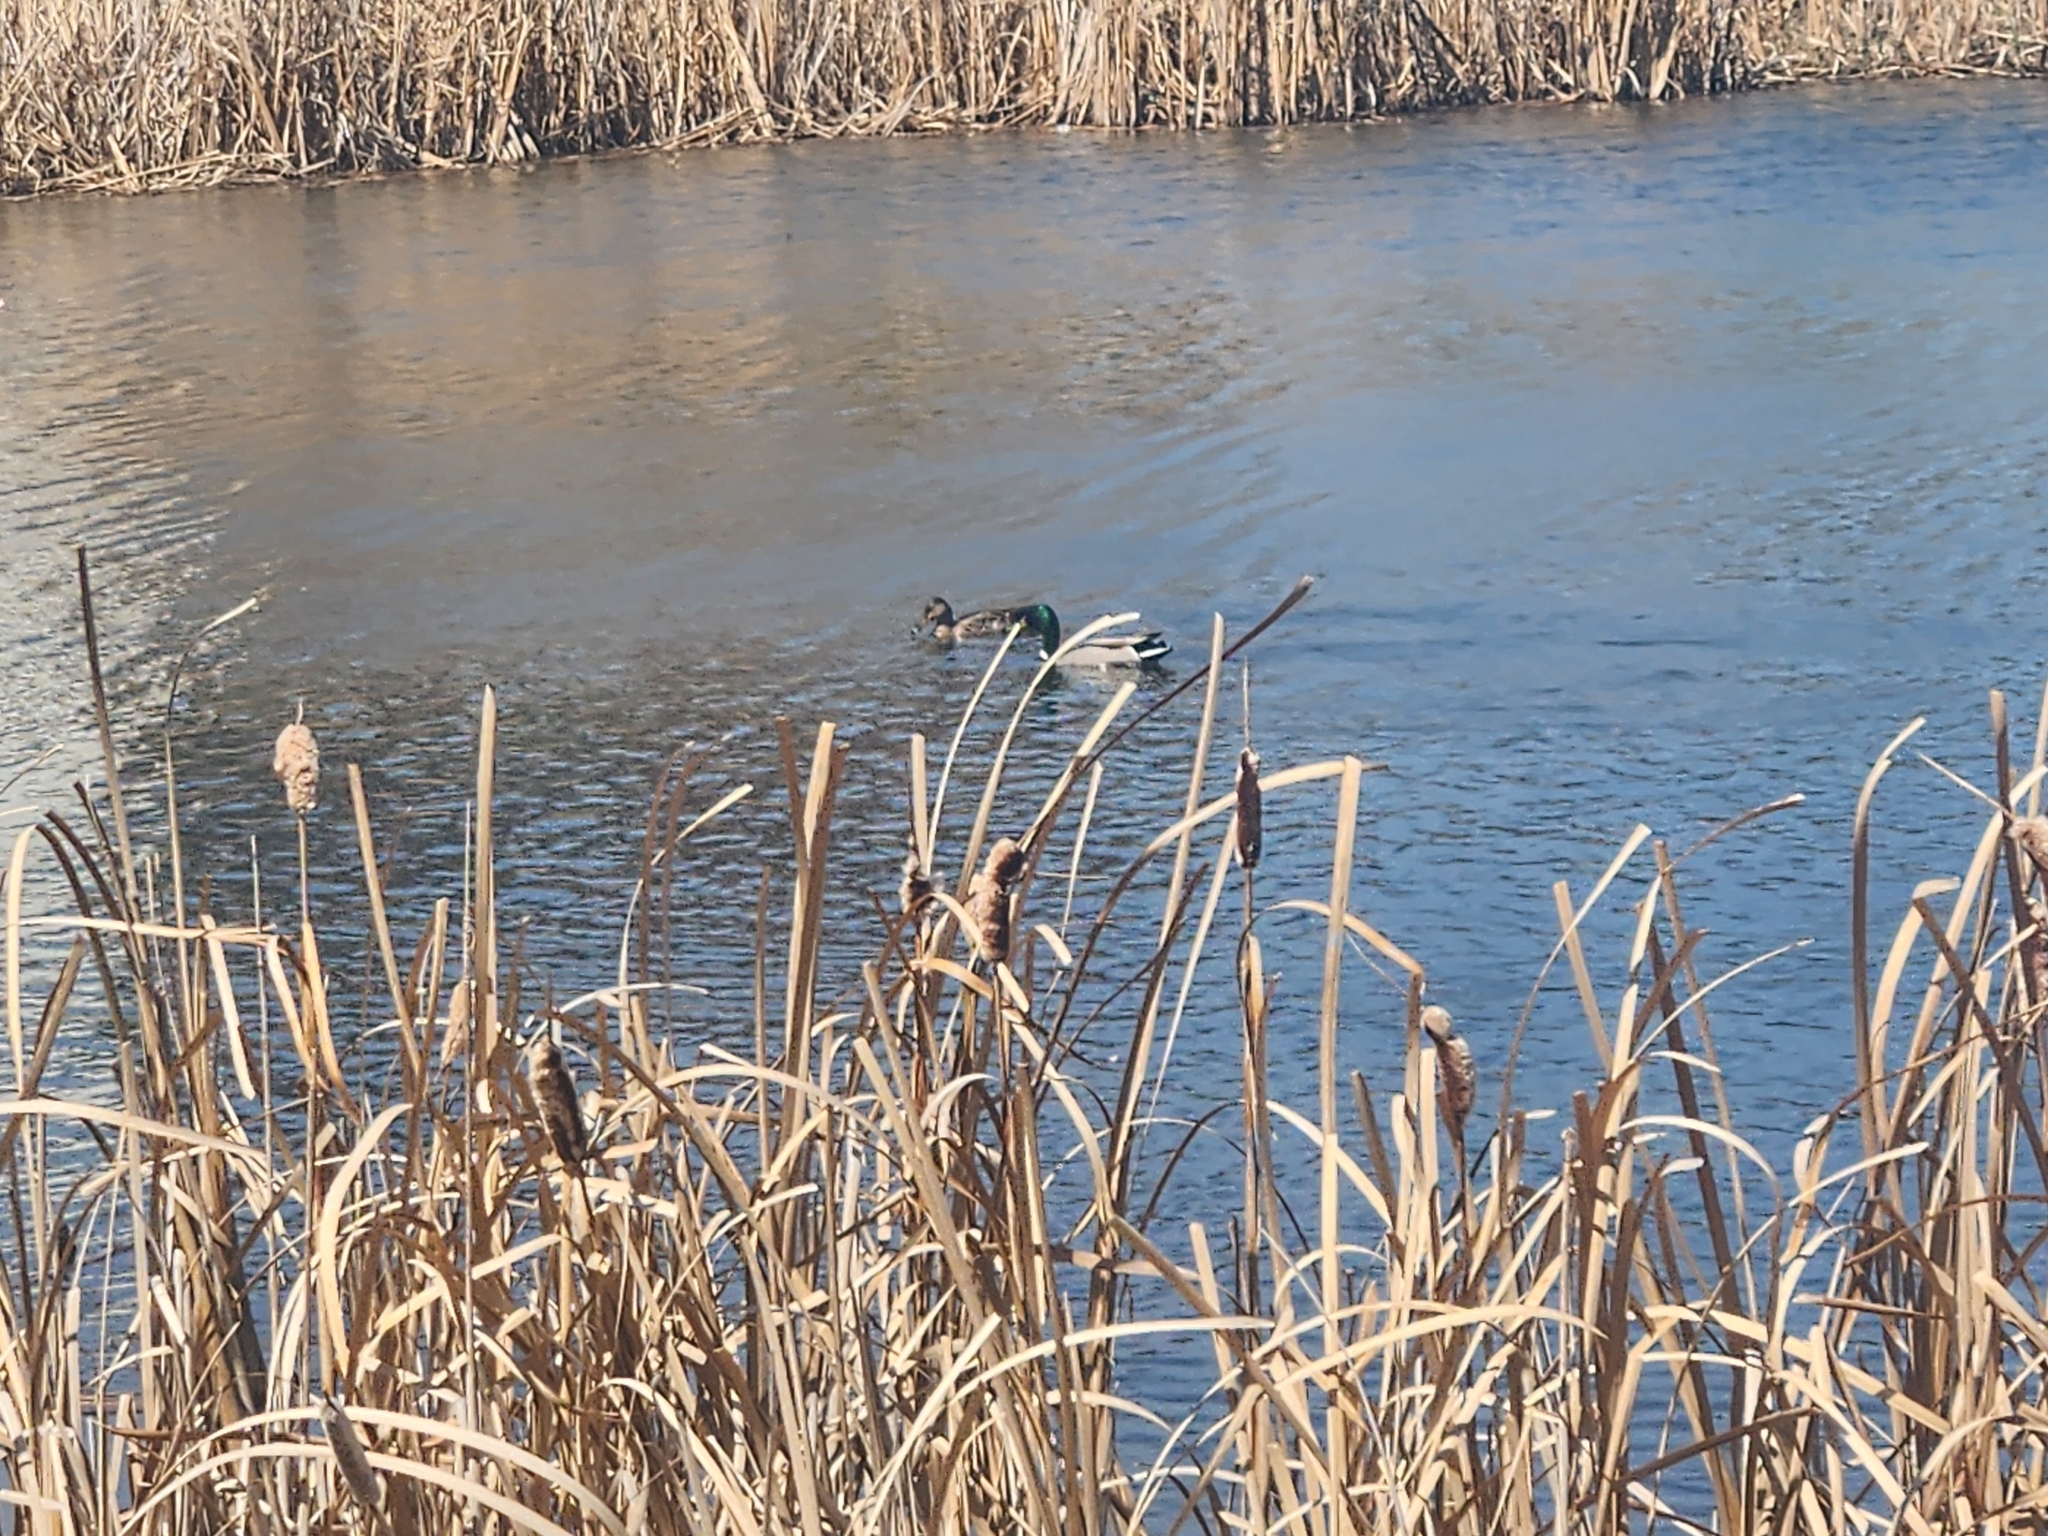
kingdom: Animalia
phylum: Chordata
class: Aves
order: Anseriformes
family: Anatidae
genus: Anas
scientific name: Anas platyrhynchos
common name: Mallard
